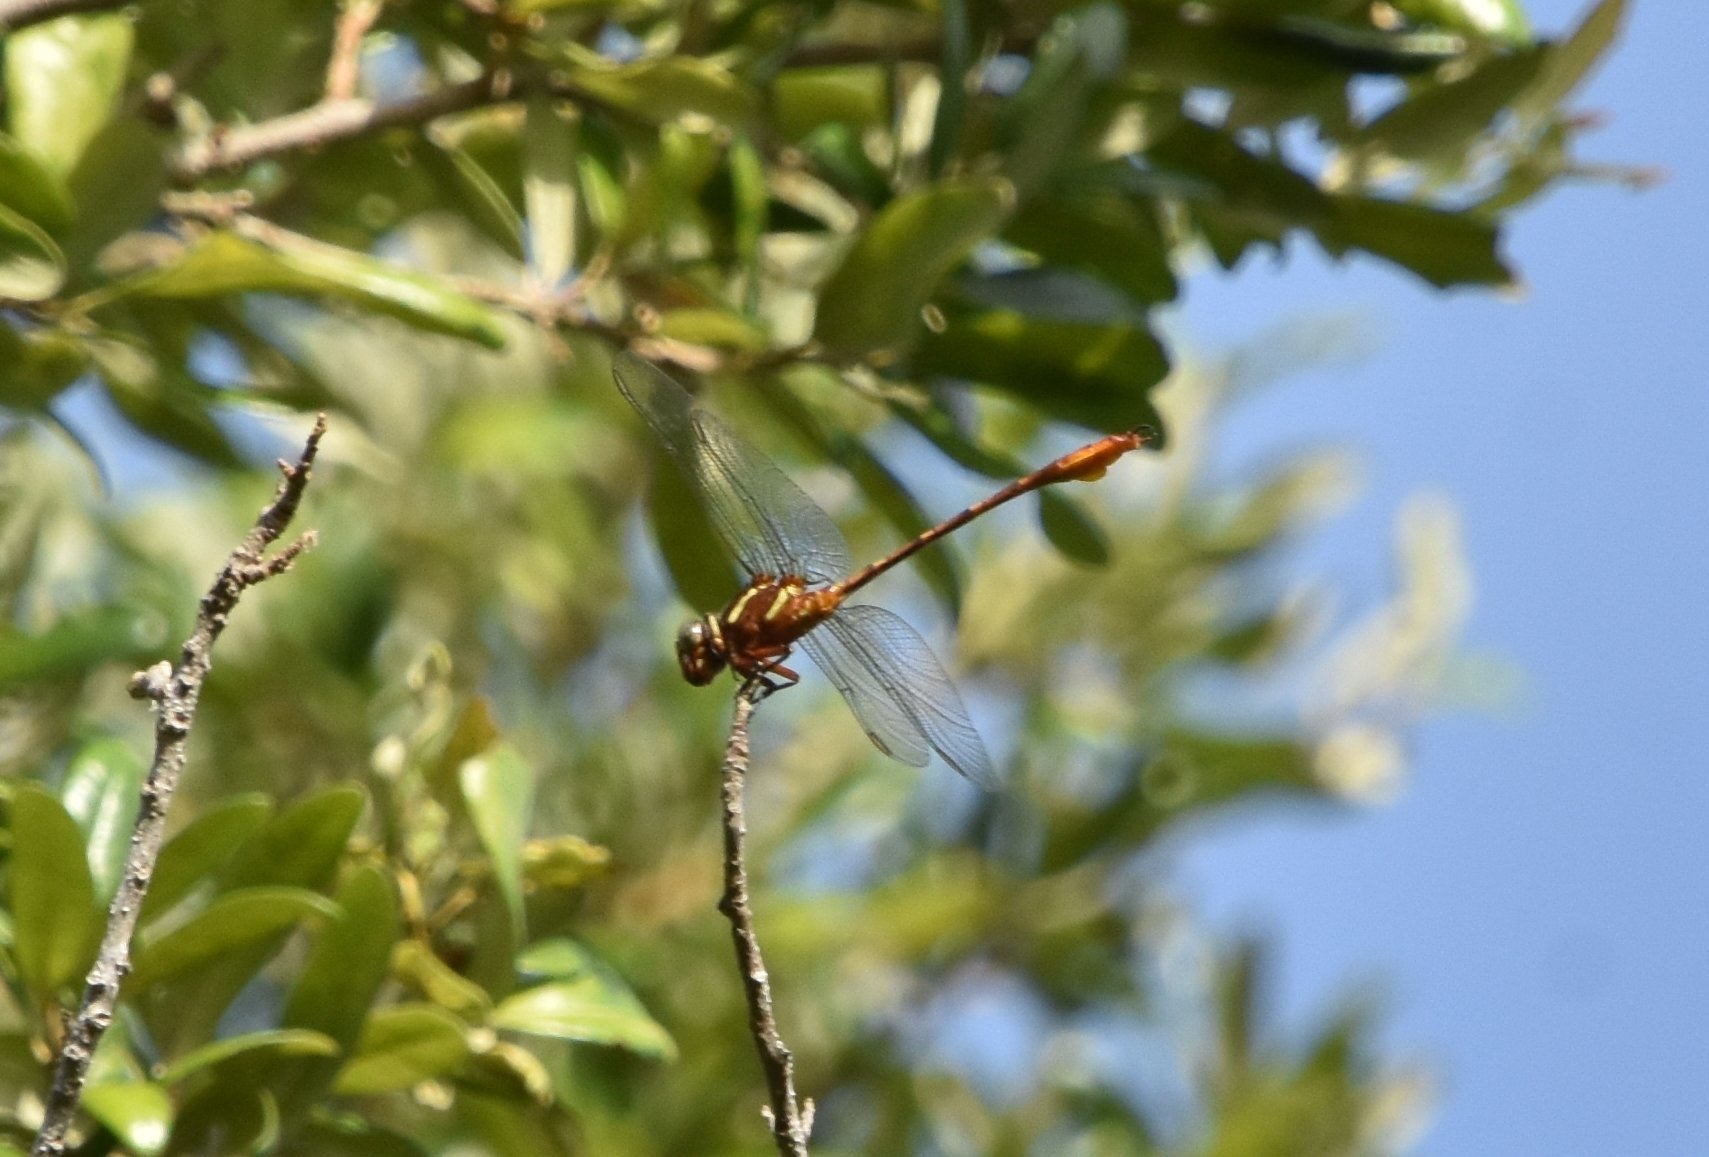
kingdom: Animalia
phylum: Arthropoda
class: Insecta
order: Odonata
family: Gomphidae
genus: Aphylla
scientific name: Aphylla williamsoni
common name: Two-striped forceptail
